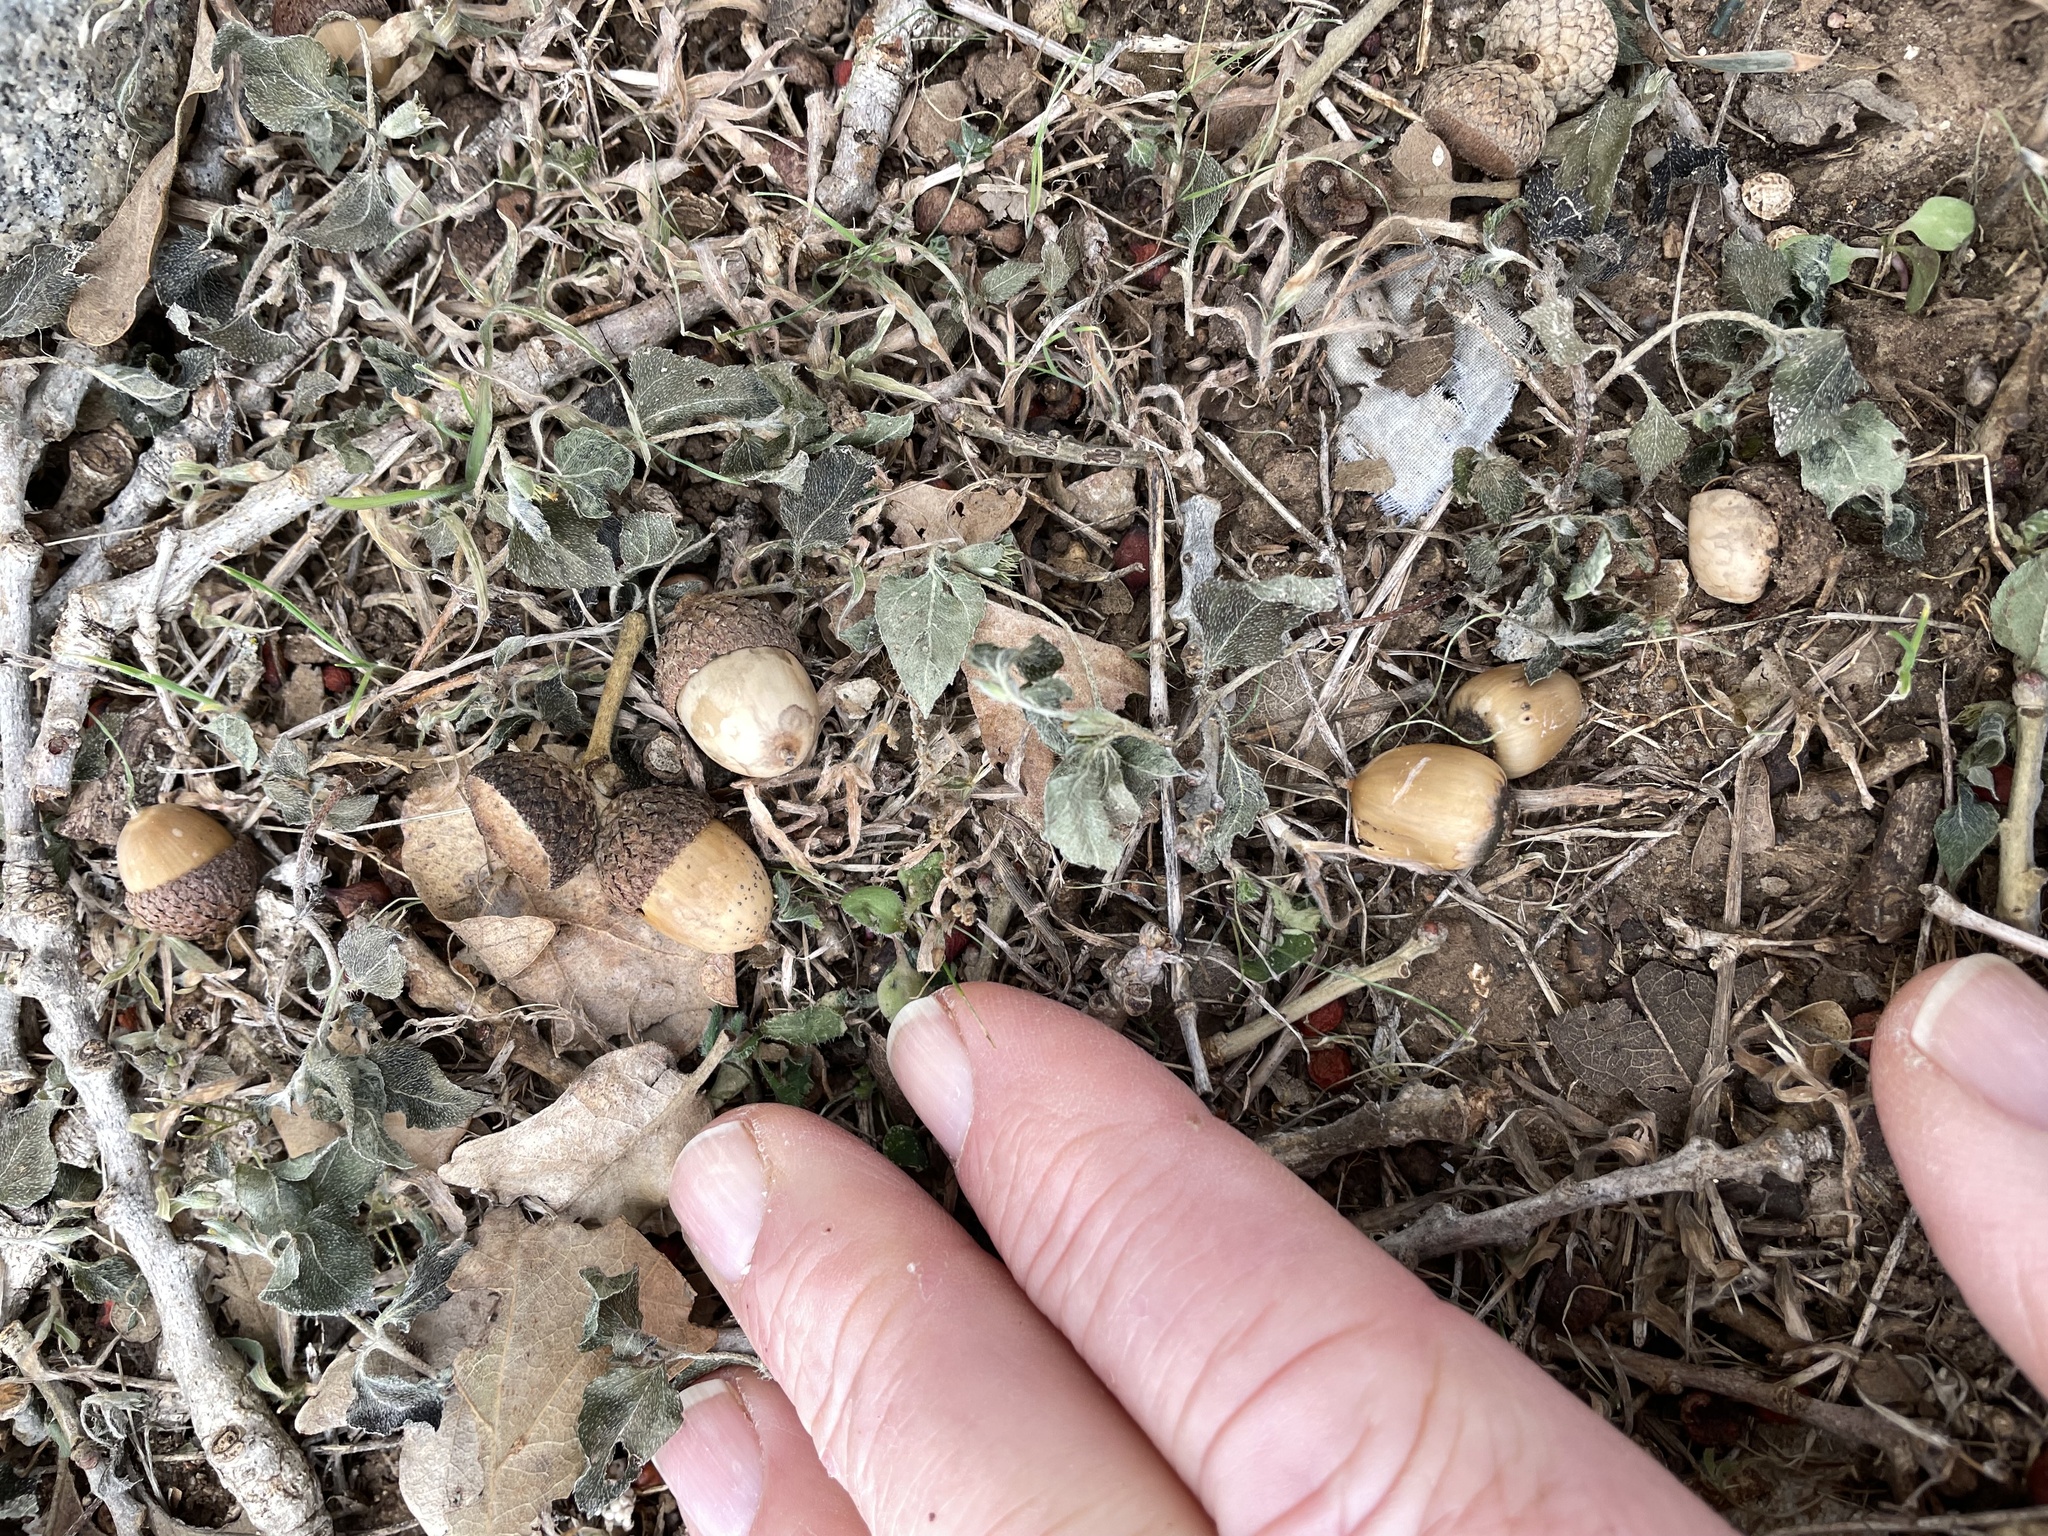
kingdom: Plantae
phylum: Tracheophyta
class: Magnoliopsida
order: Fagales
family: Fagaceae
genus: Quercus
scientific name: Quercus stellata
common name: Post oak
